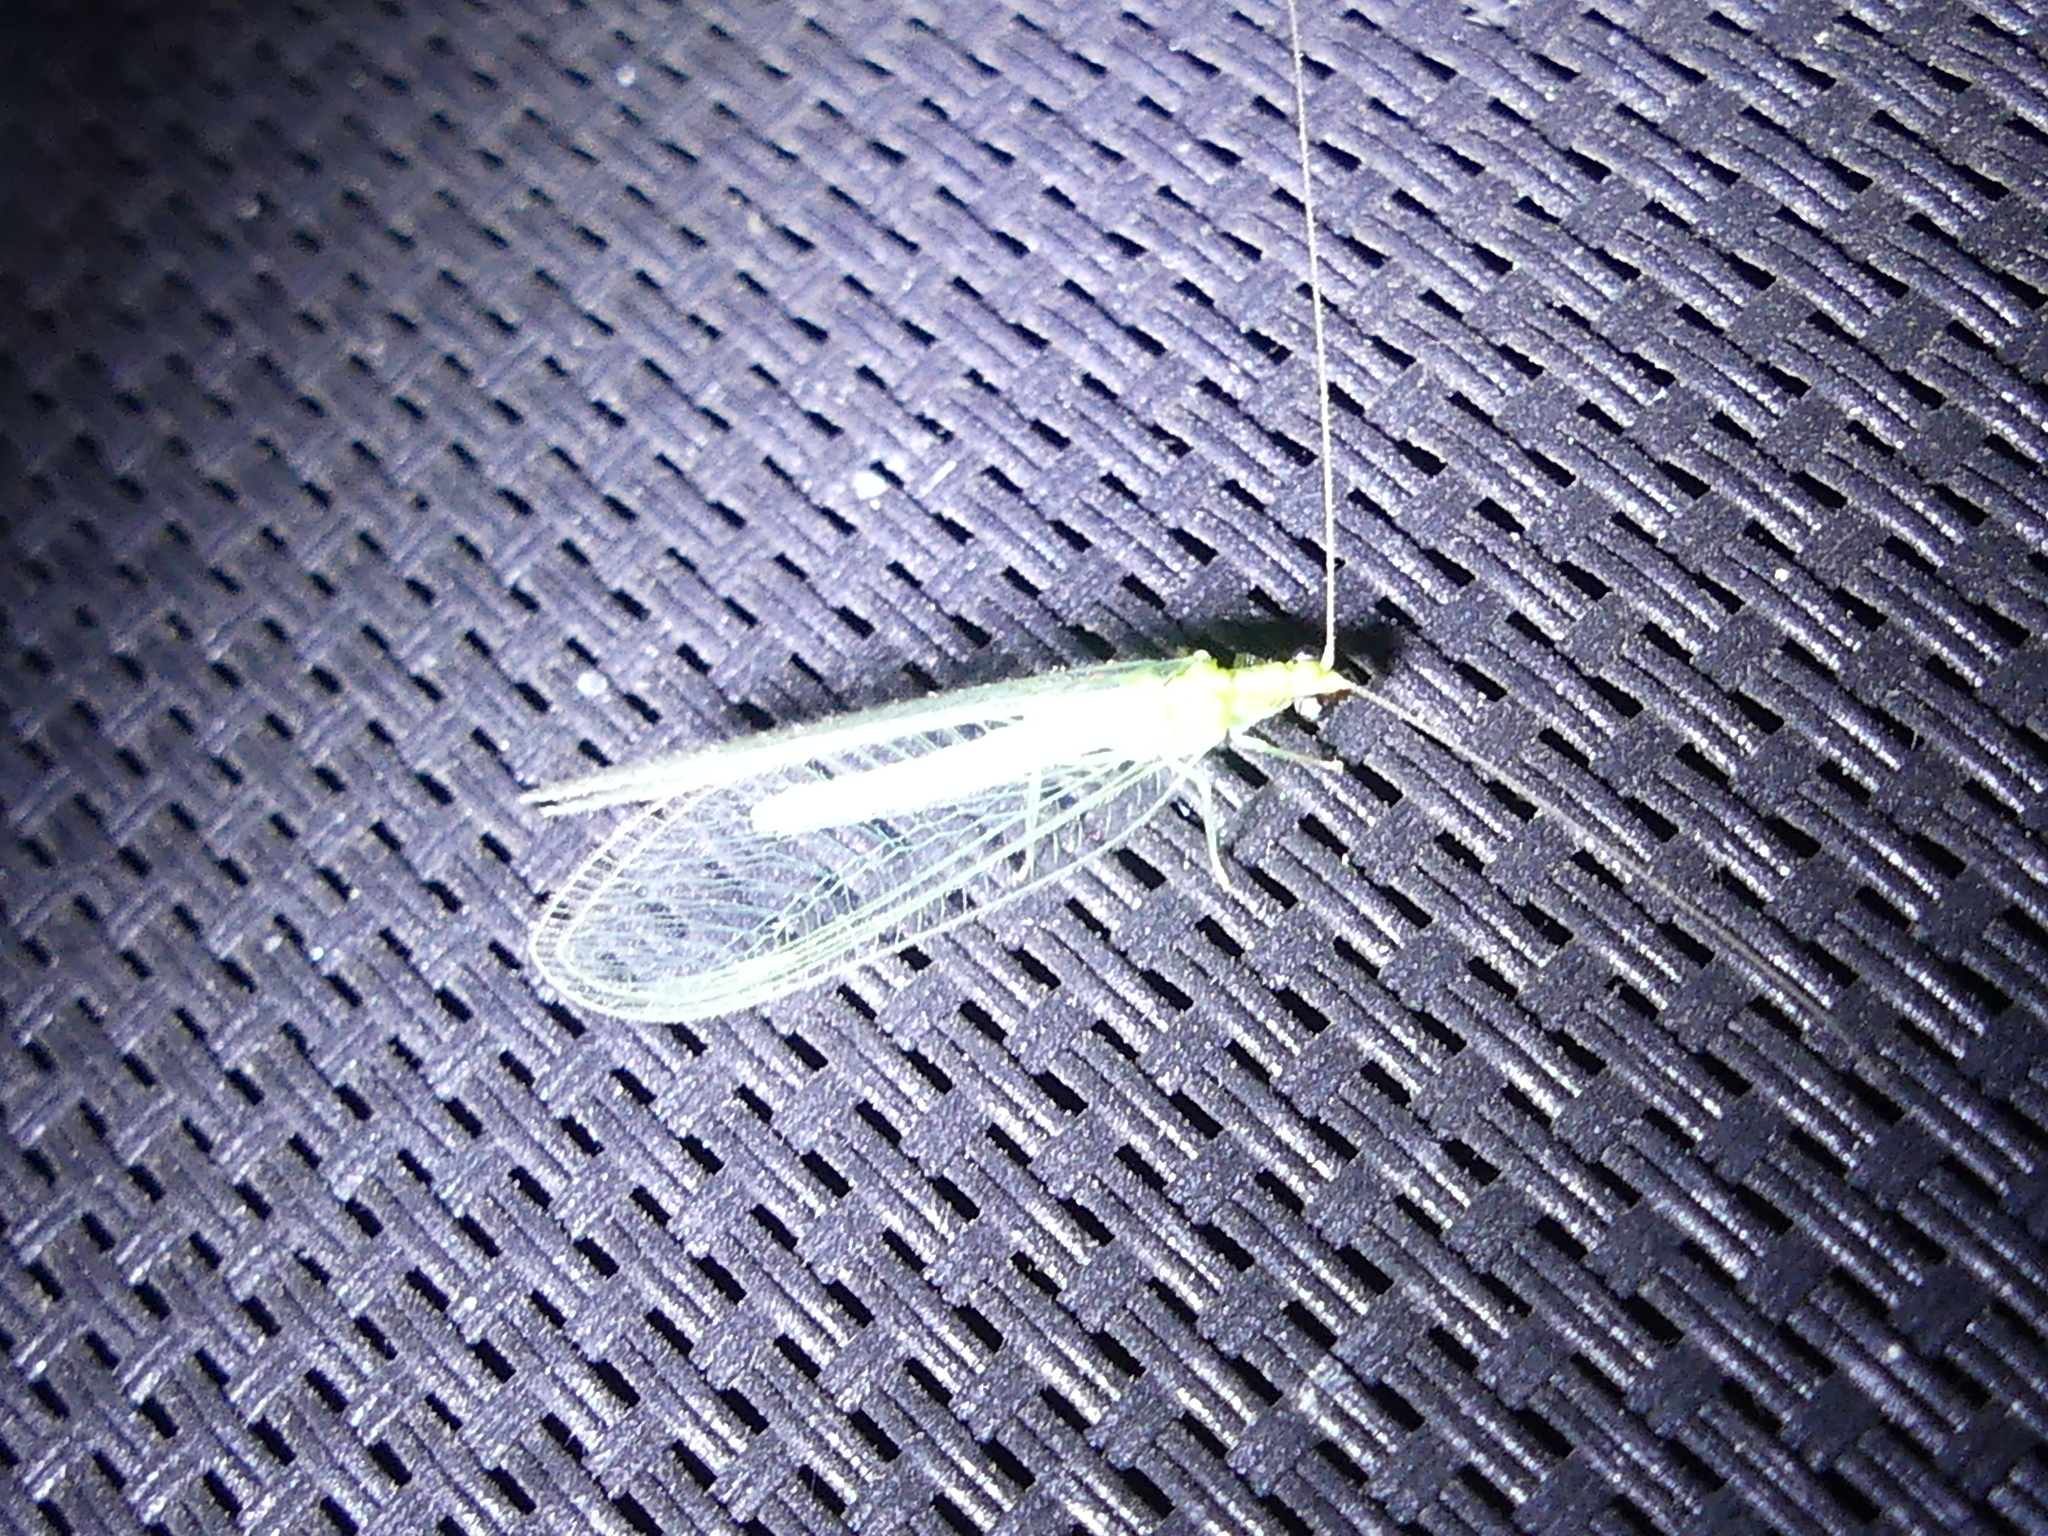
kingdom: Animalia
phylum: Arthropoda
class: Insecta
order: Neuroptera
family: Chrysopidae
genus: Chrysoperla
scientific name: Chrysoperla
